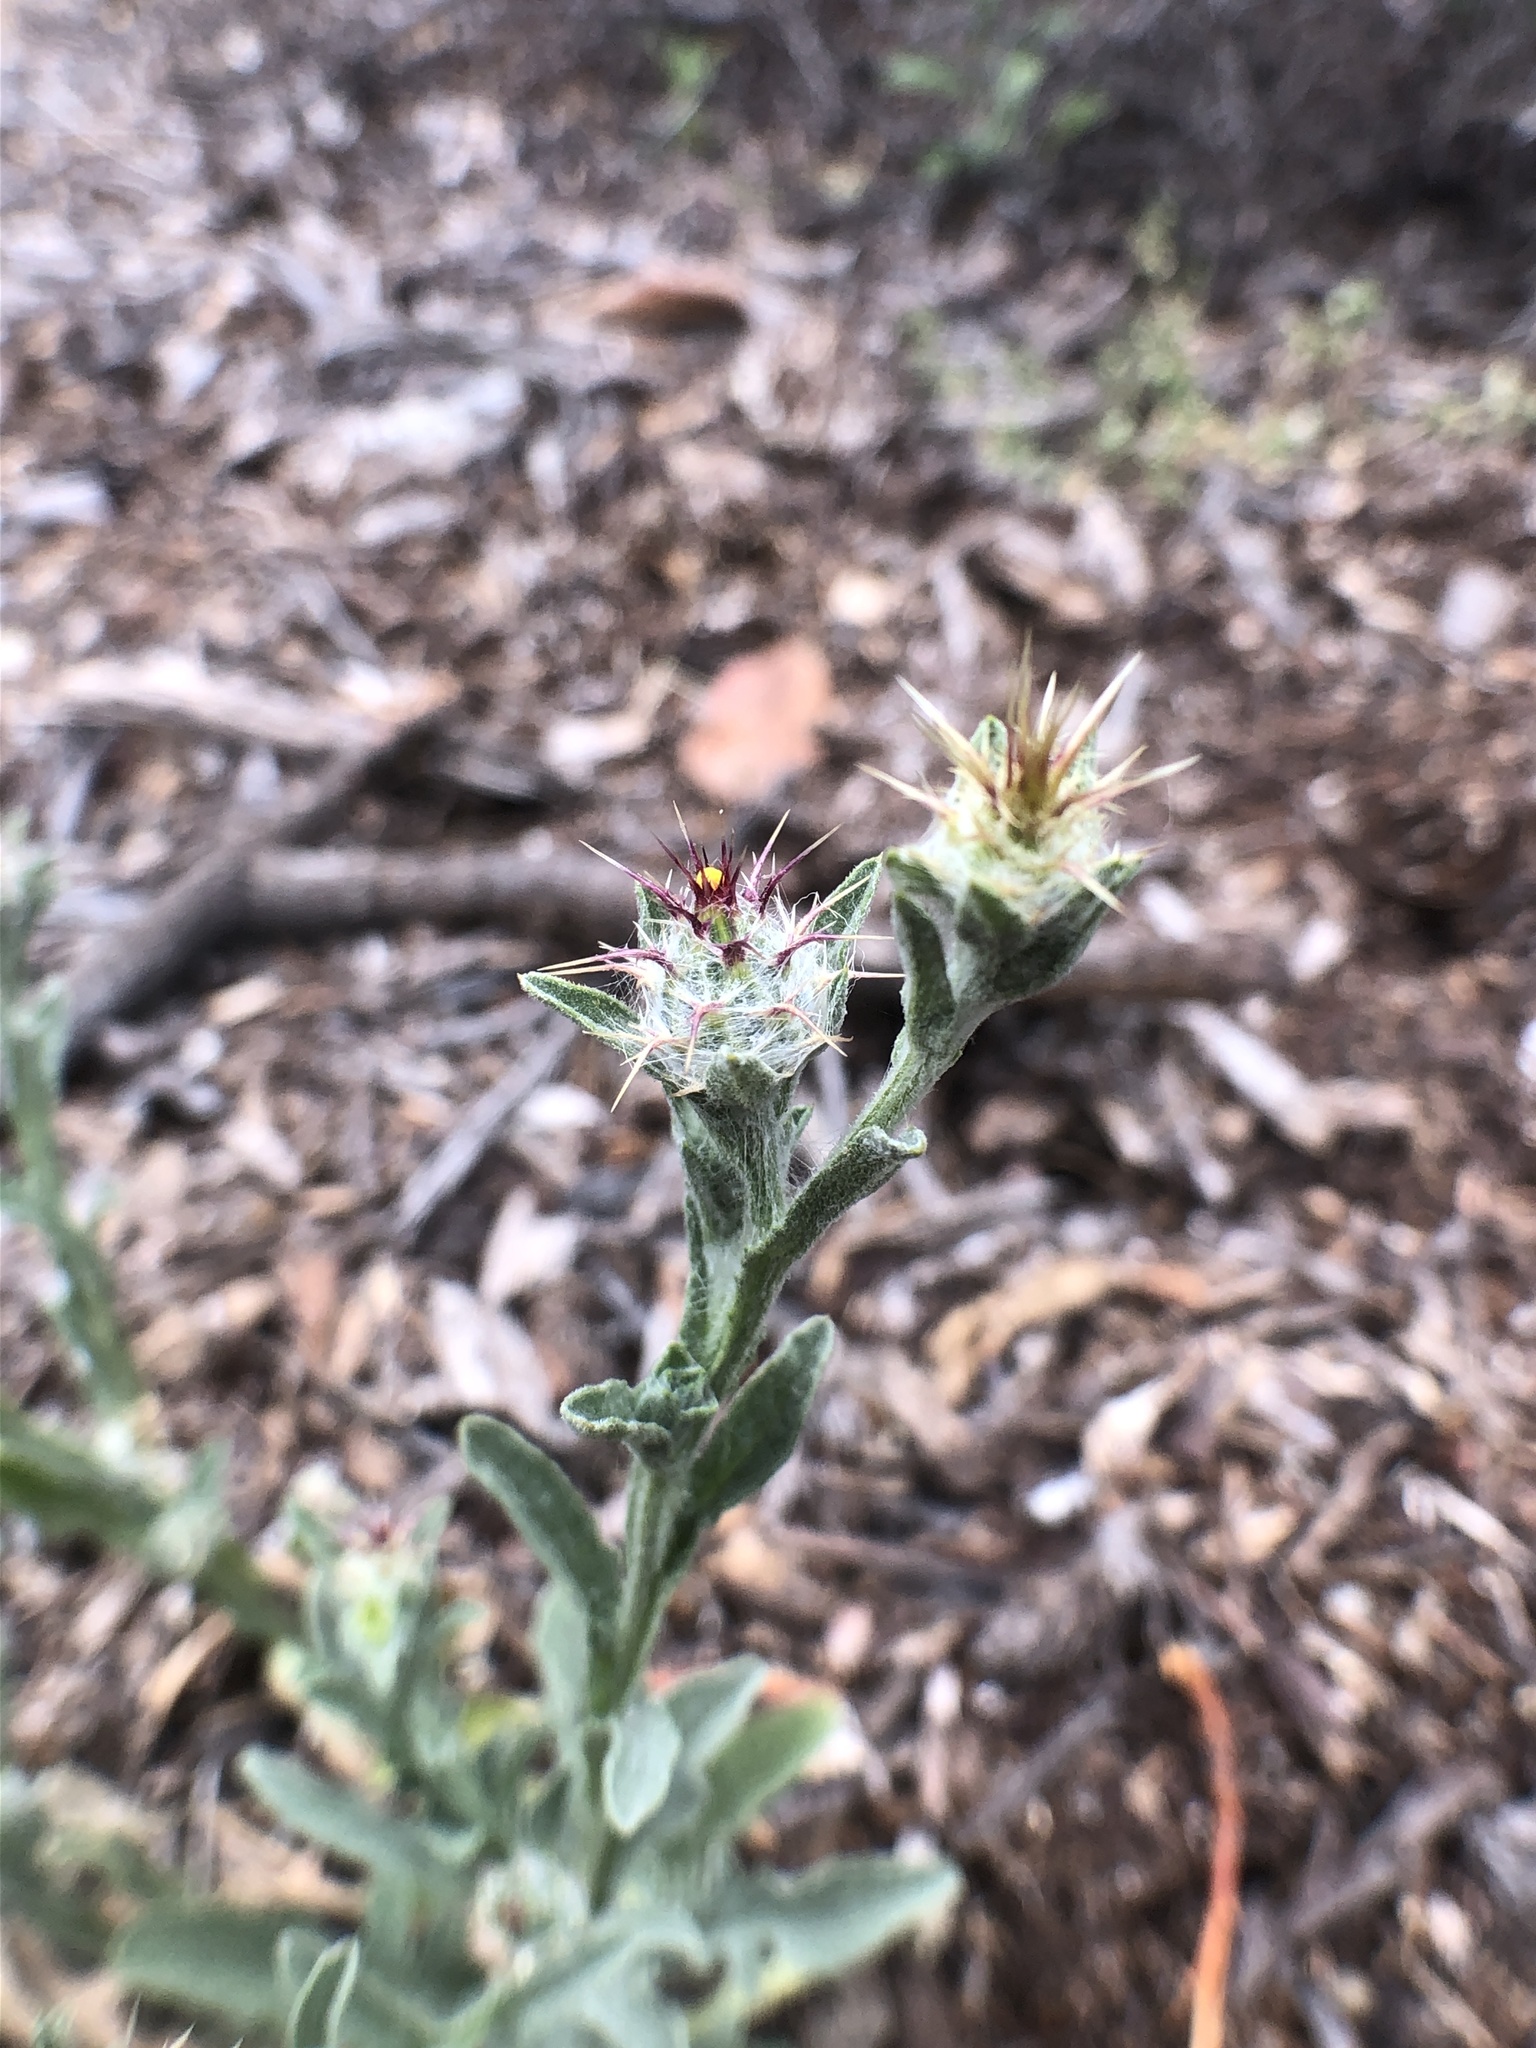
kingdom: Plantae
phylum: Tracheophyta
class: Magnoliopsida
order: Asterales
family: Asteraceae
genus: Centaurea
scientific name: Centaurea melitensis
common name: Maltese star-thistle
